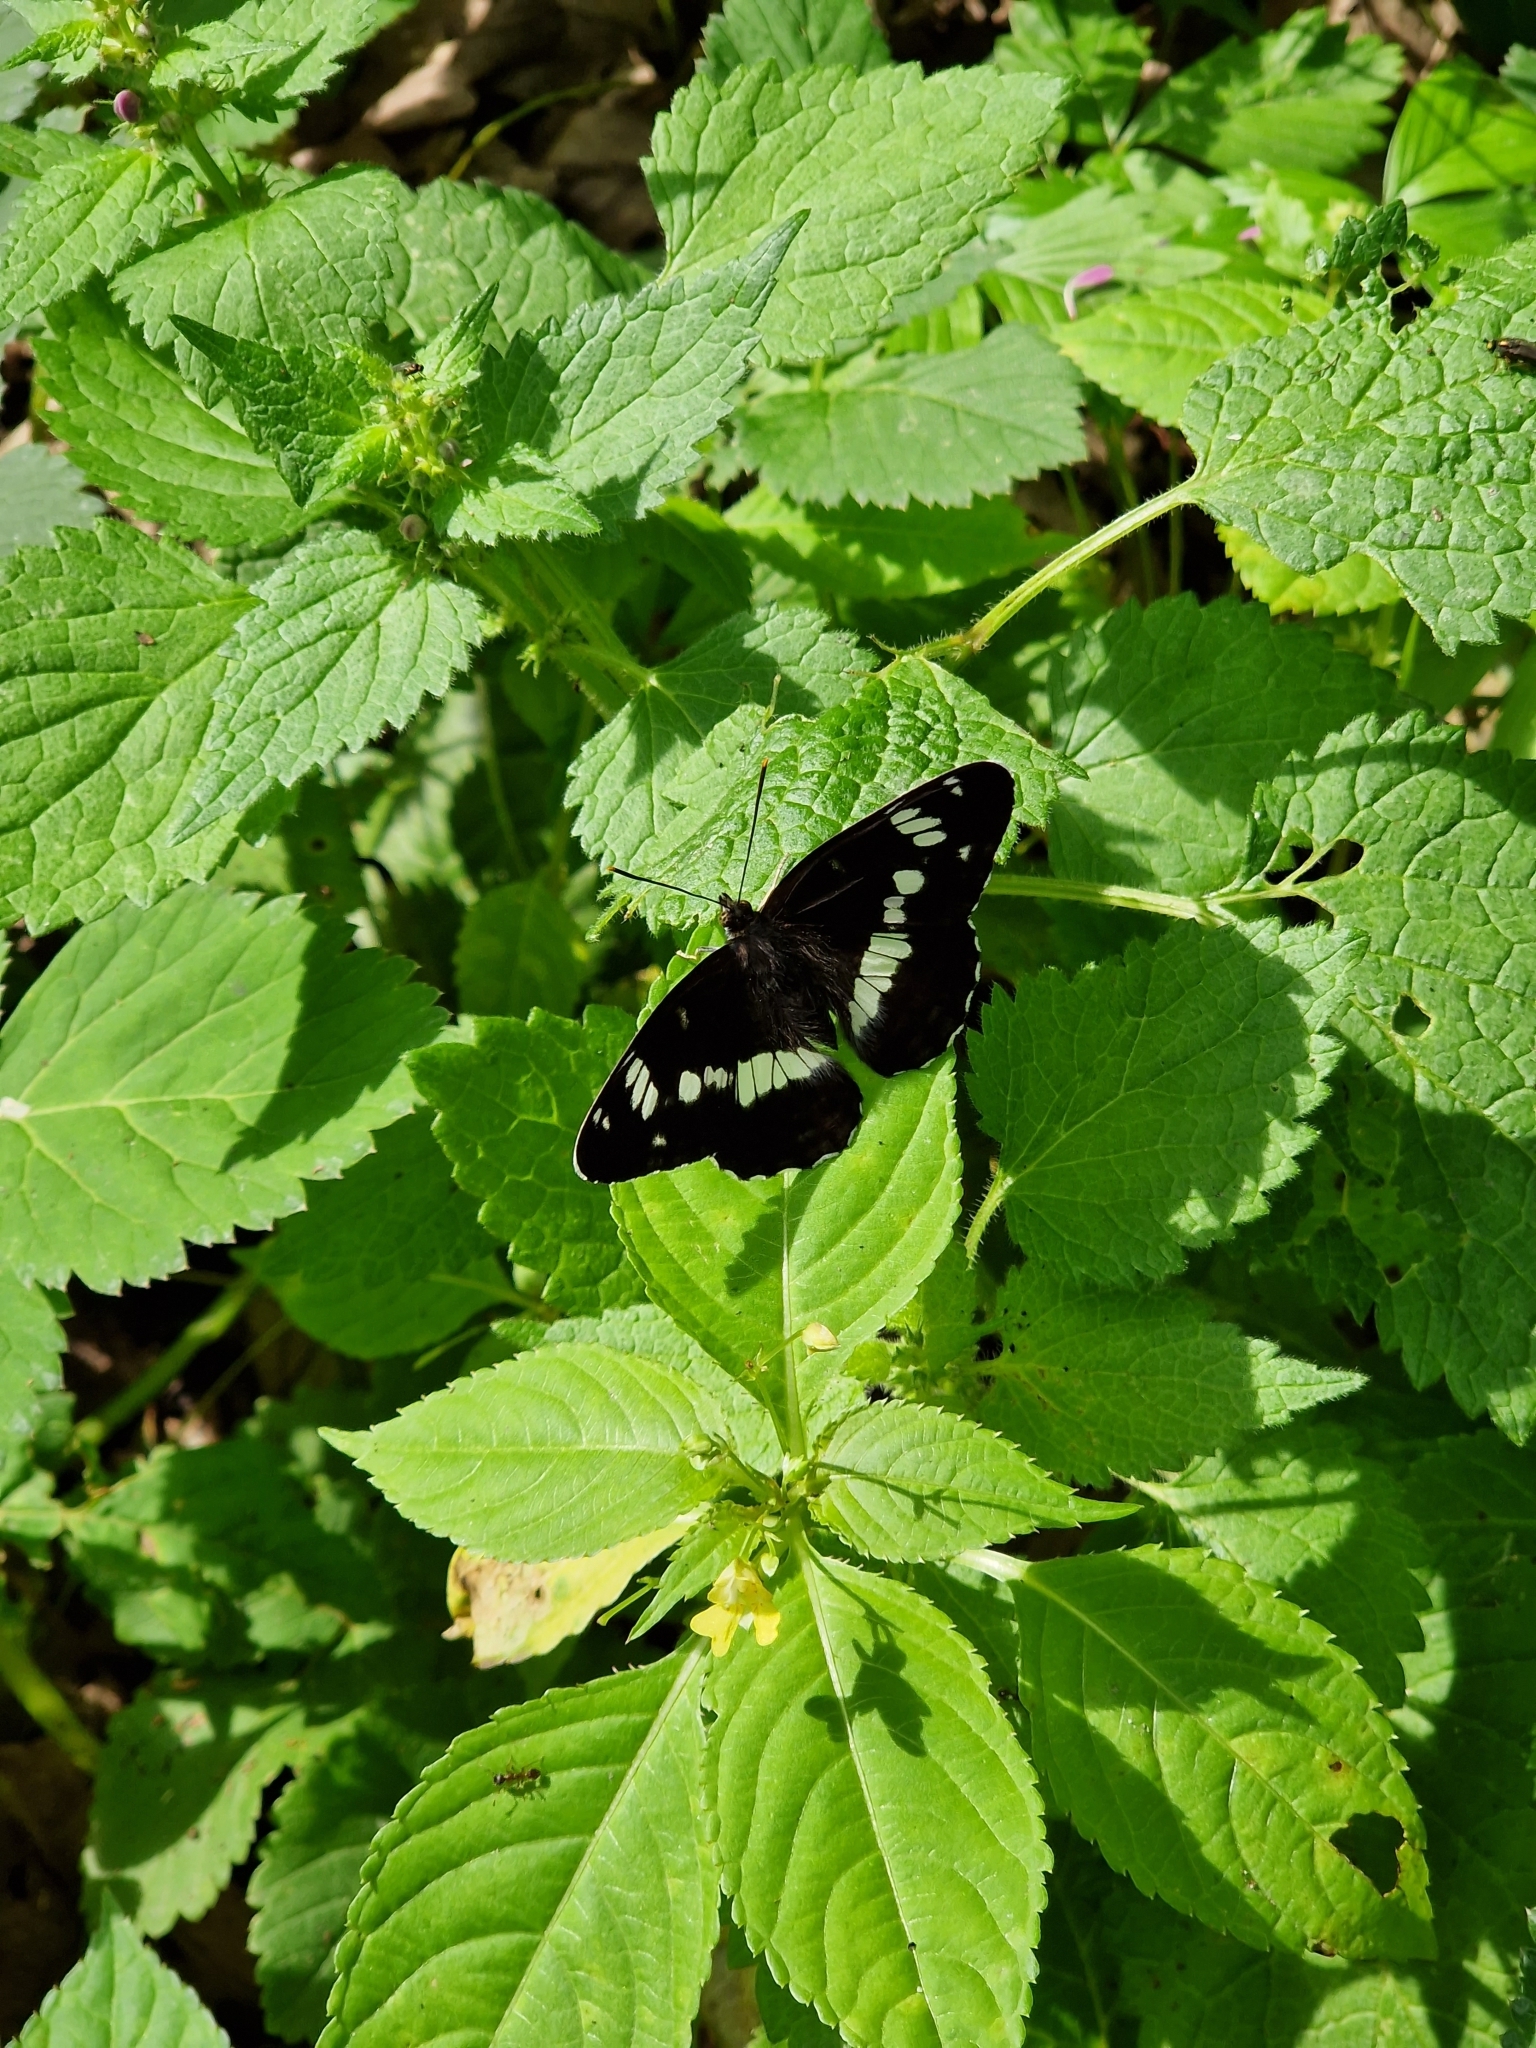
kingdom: Animalia
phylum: Arthropoda
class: Insecta
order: Lepidoptera
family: Nymphalidae
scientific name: Nymphalidae
